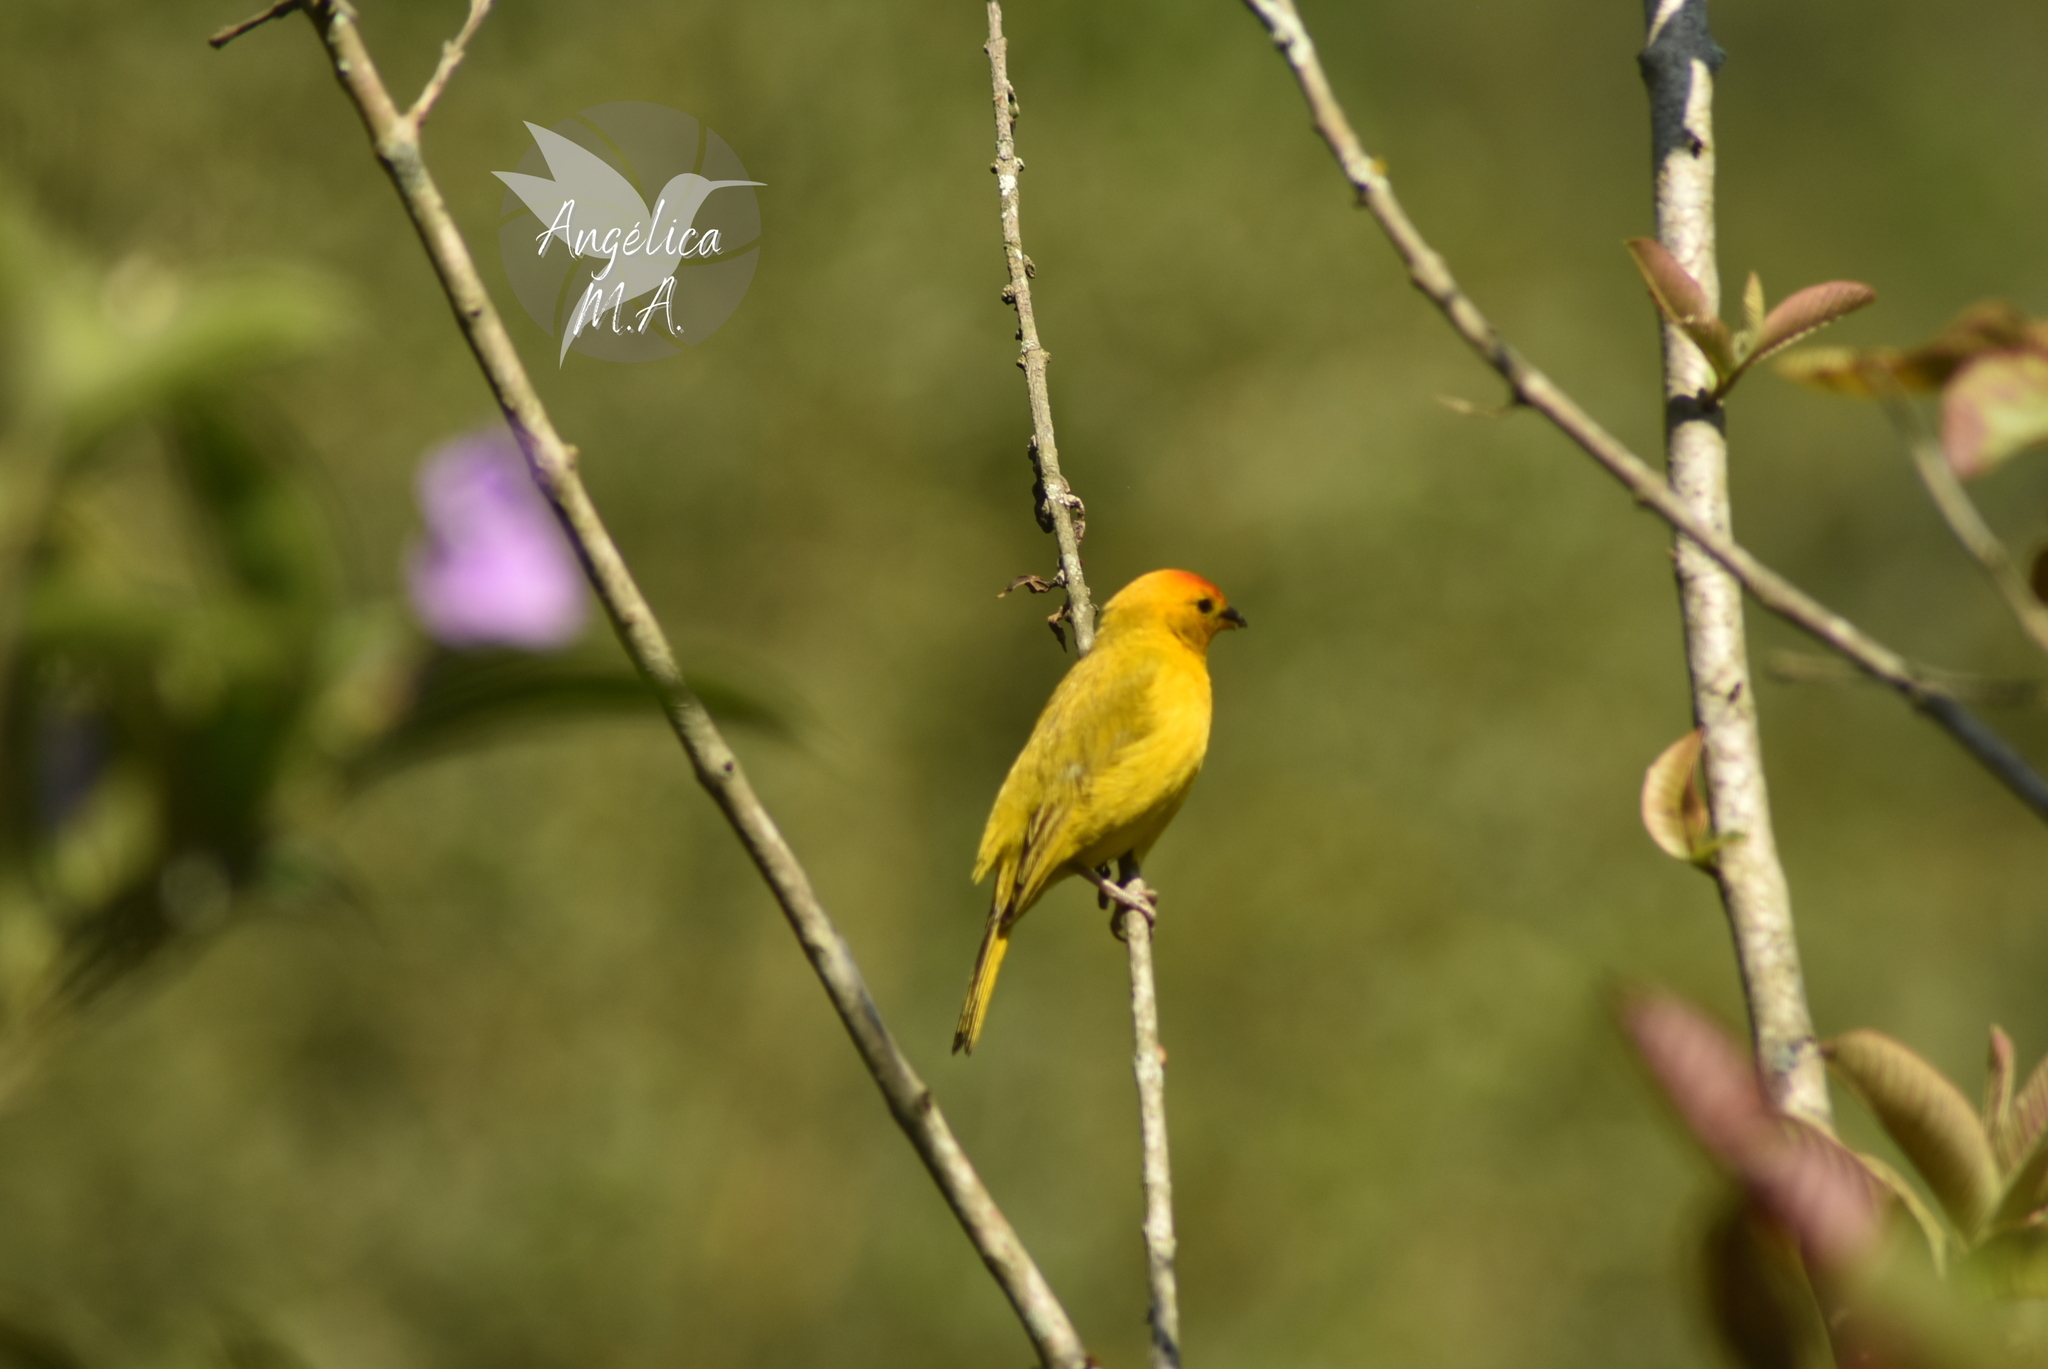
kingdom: Animalia
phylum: Chordata
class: Aves
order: Passeriformes
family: Thraupidae
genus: Sicalis
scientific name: Sicalis flaveola
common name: Saffron finch
